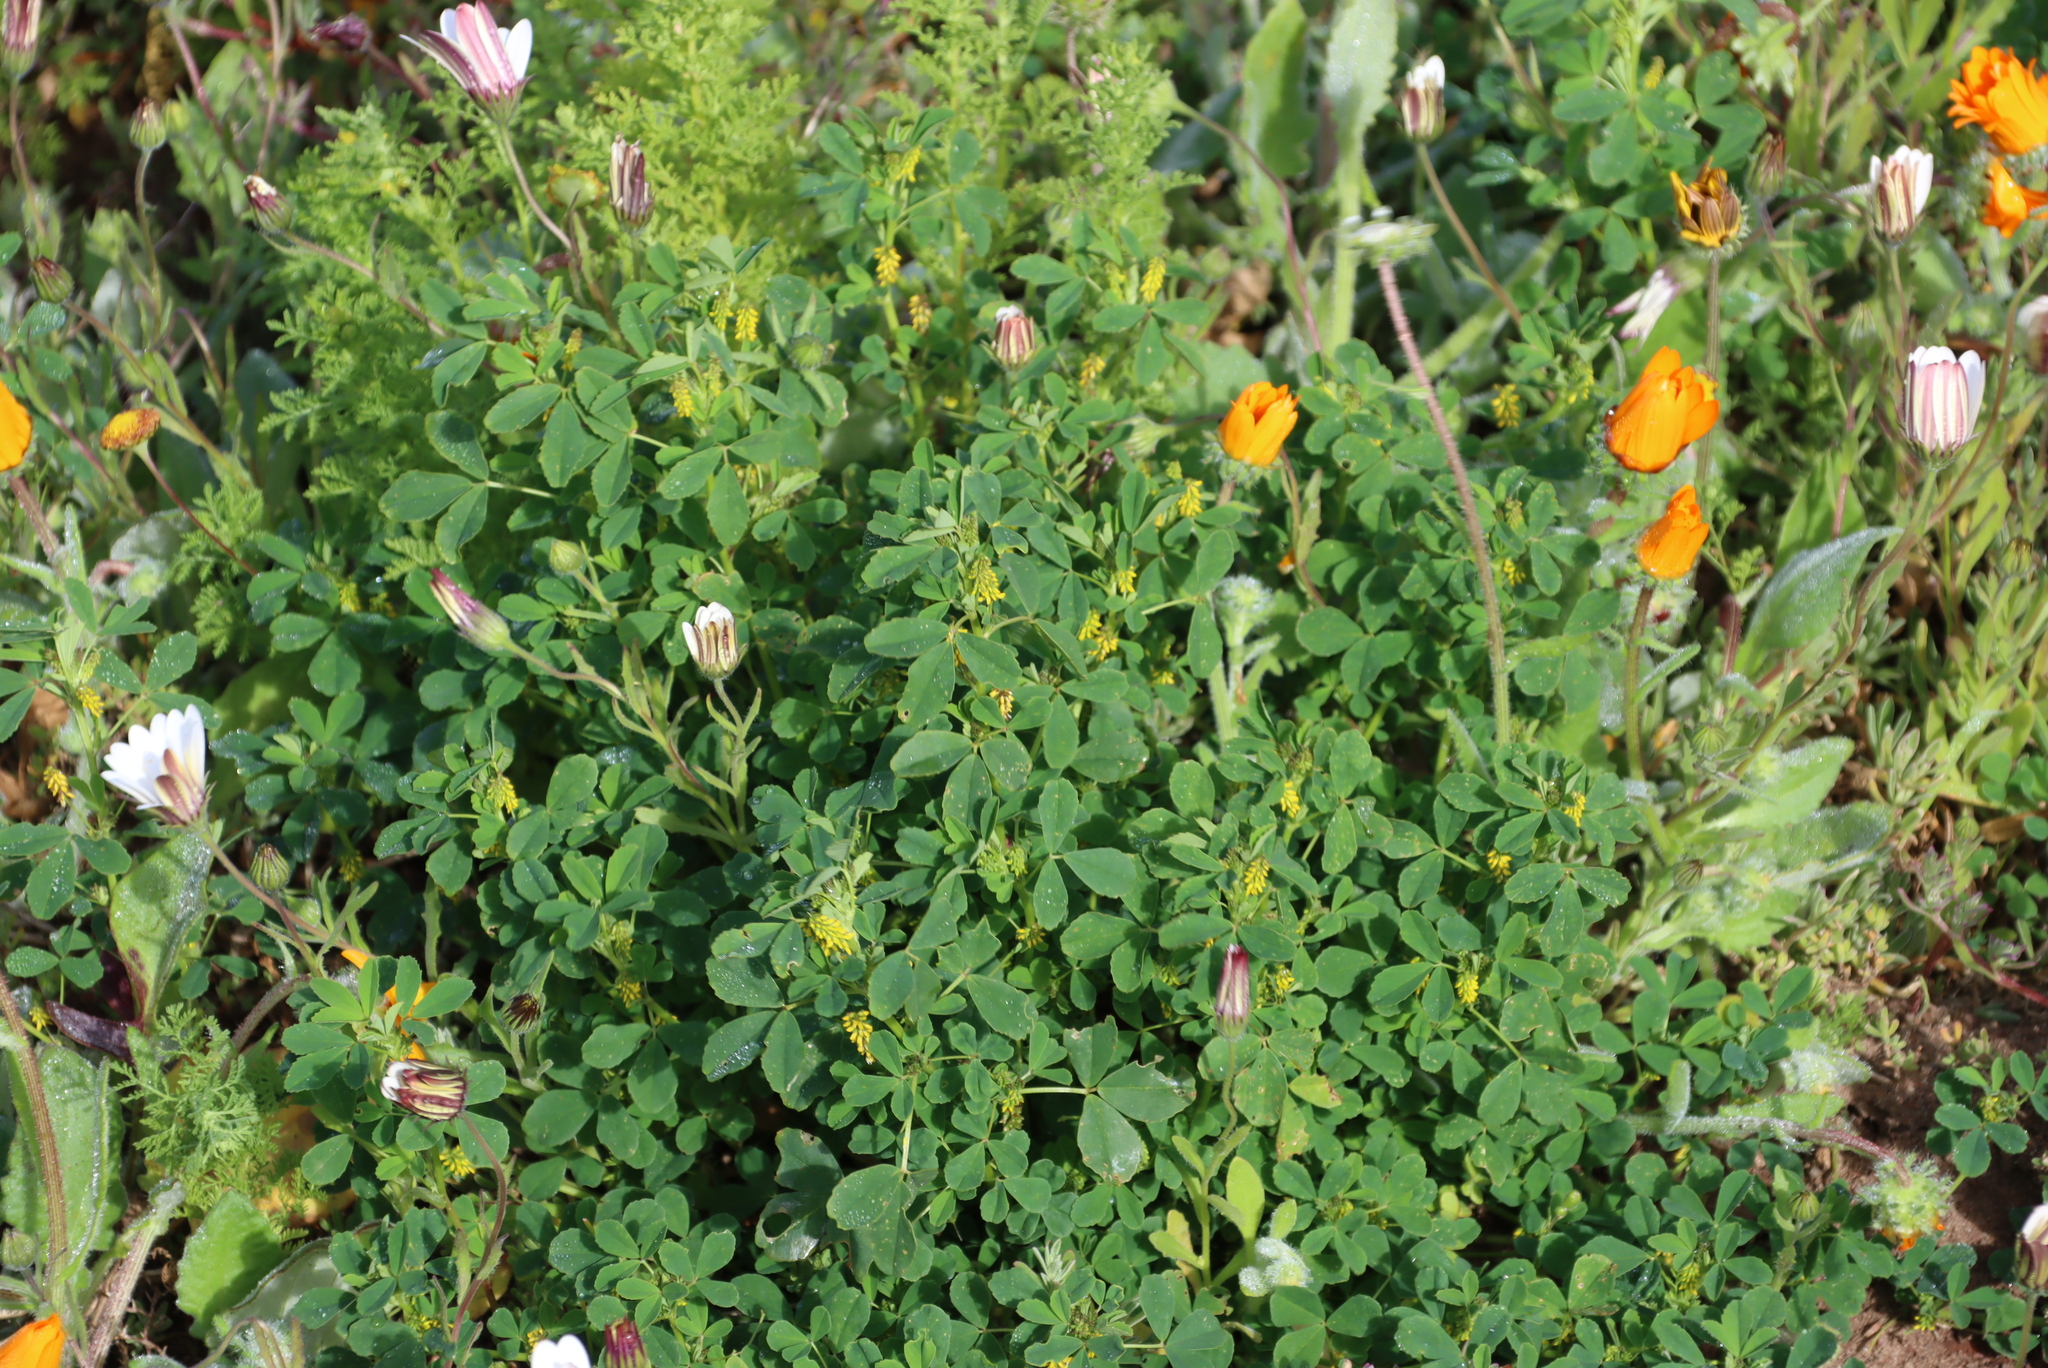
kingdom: Plantae
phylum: Tracheophyta
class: Magnoliopsida
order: Fabales
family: Fabaceae
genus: Melilotus
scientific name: Melilotus indicus
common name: Small melilot
